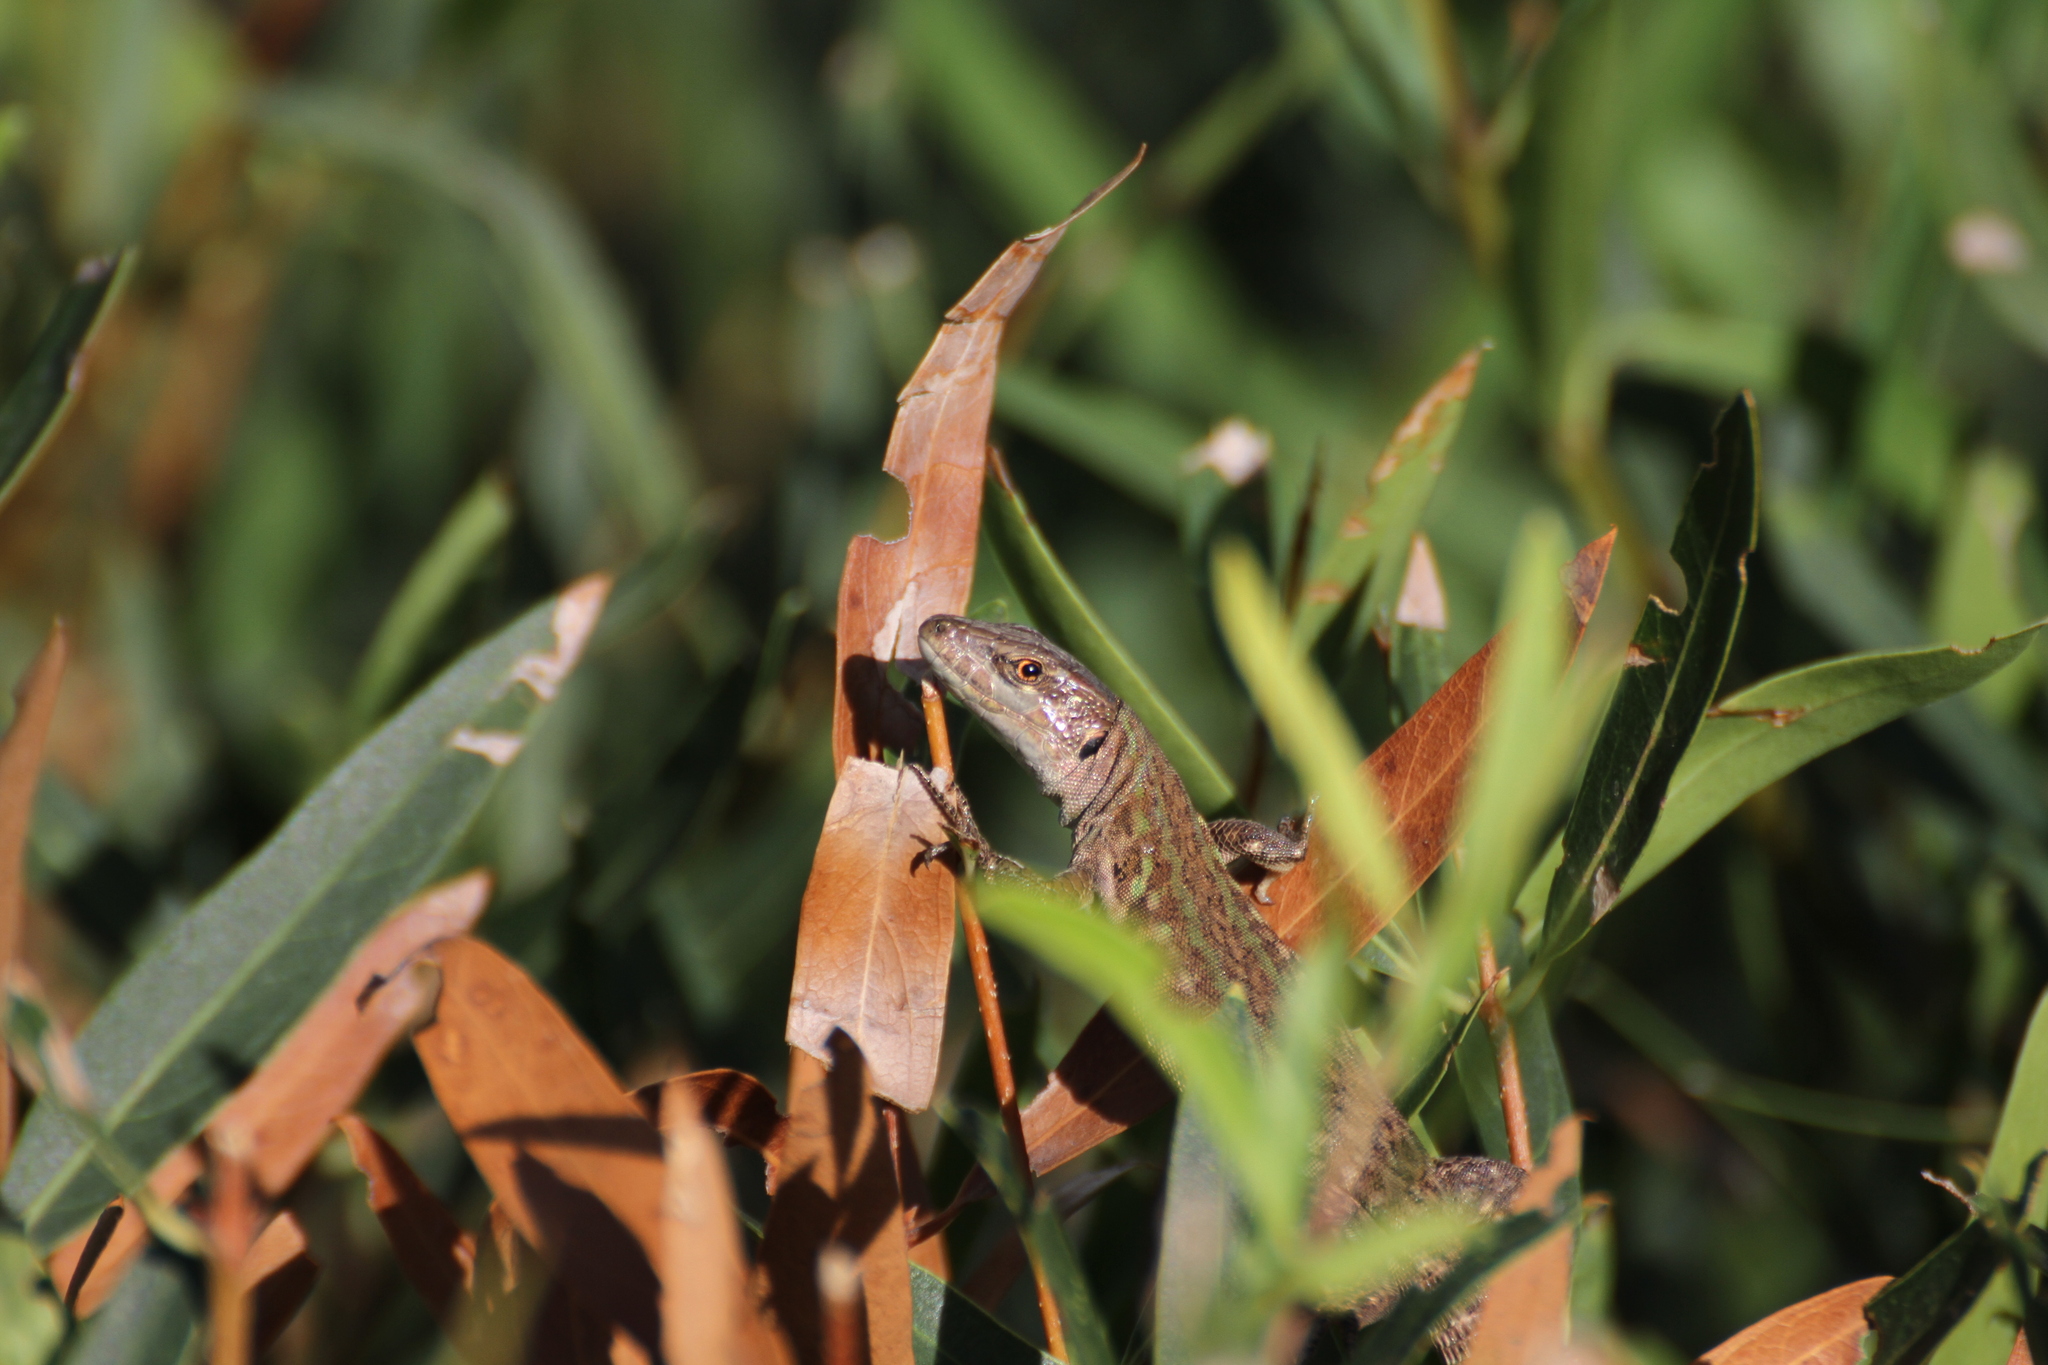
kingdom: Animalia
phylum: Chordata
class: Squamata
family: Lacertidae
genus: Podarcis
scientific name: Podarcis siculus
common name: Italian wall lizard
